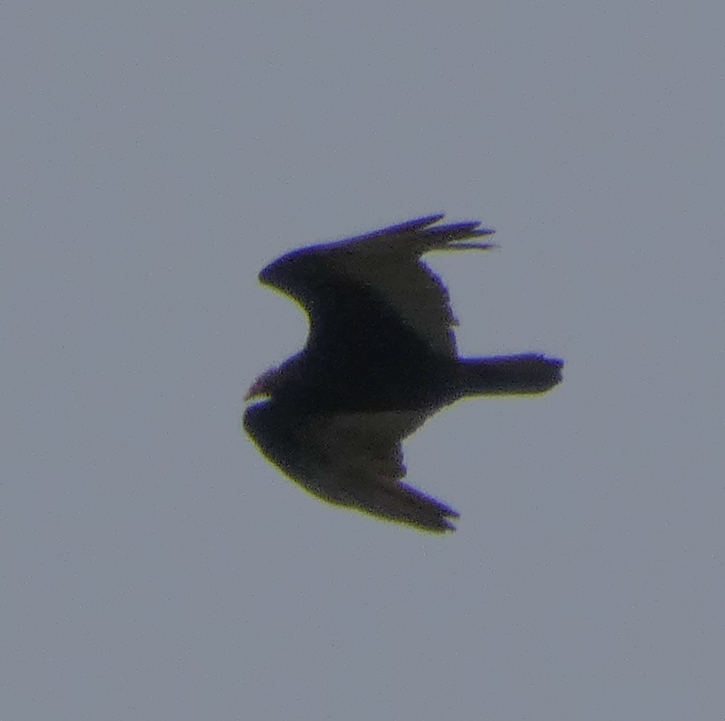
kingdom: Animalia
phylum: Chordata
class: Aves
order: Accipitriformes
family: Cathartidae
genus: Cathartes
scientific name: Cathartes aura
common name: Turkey vulture
